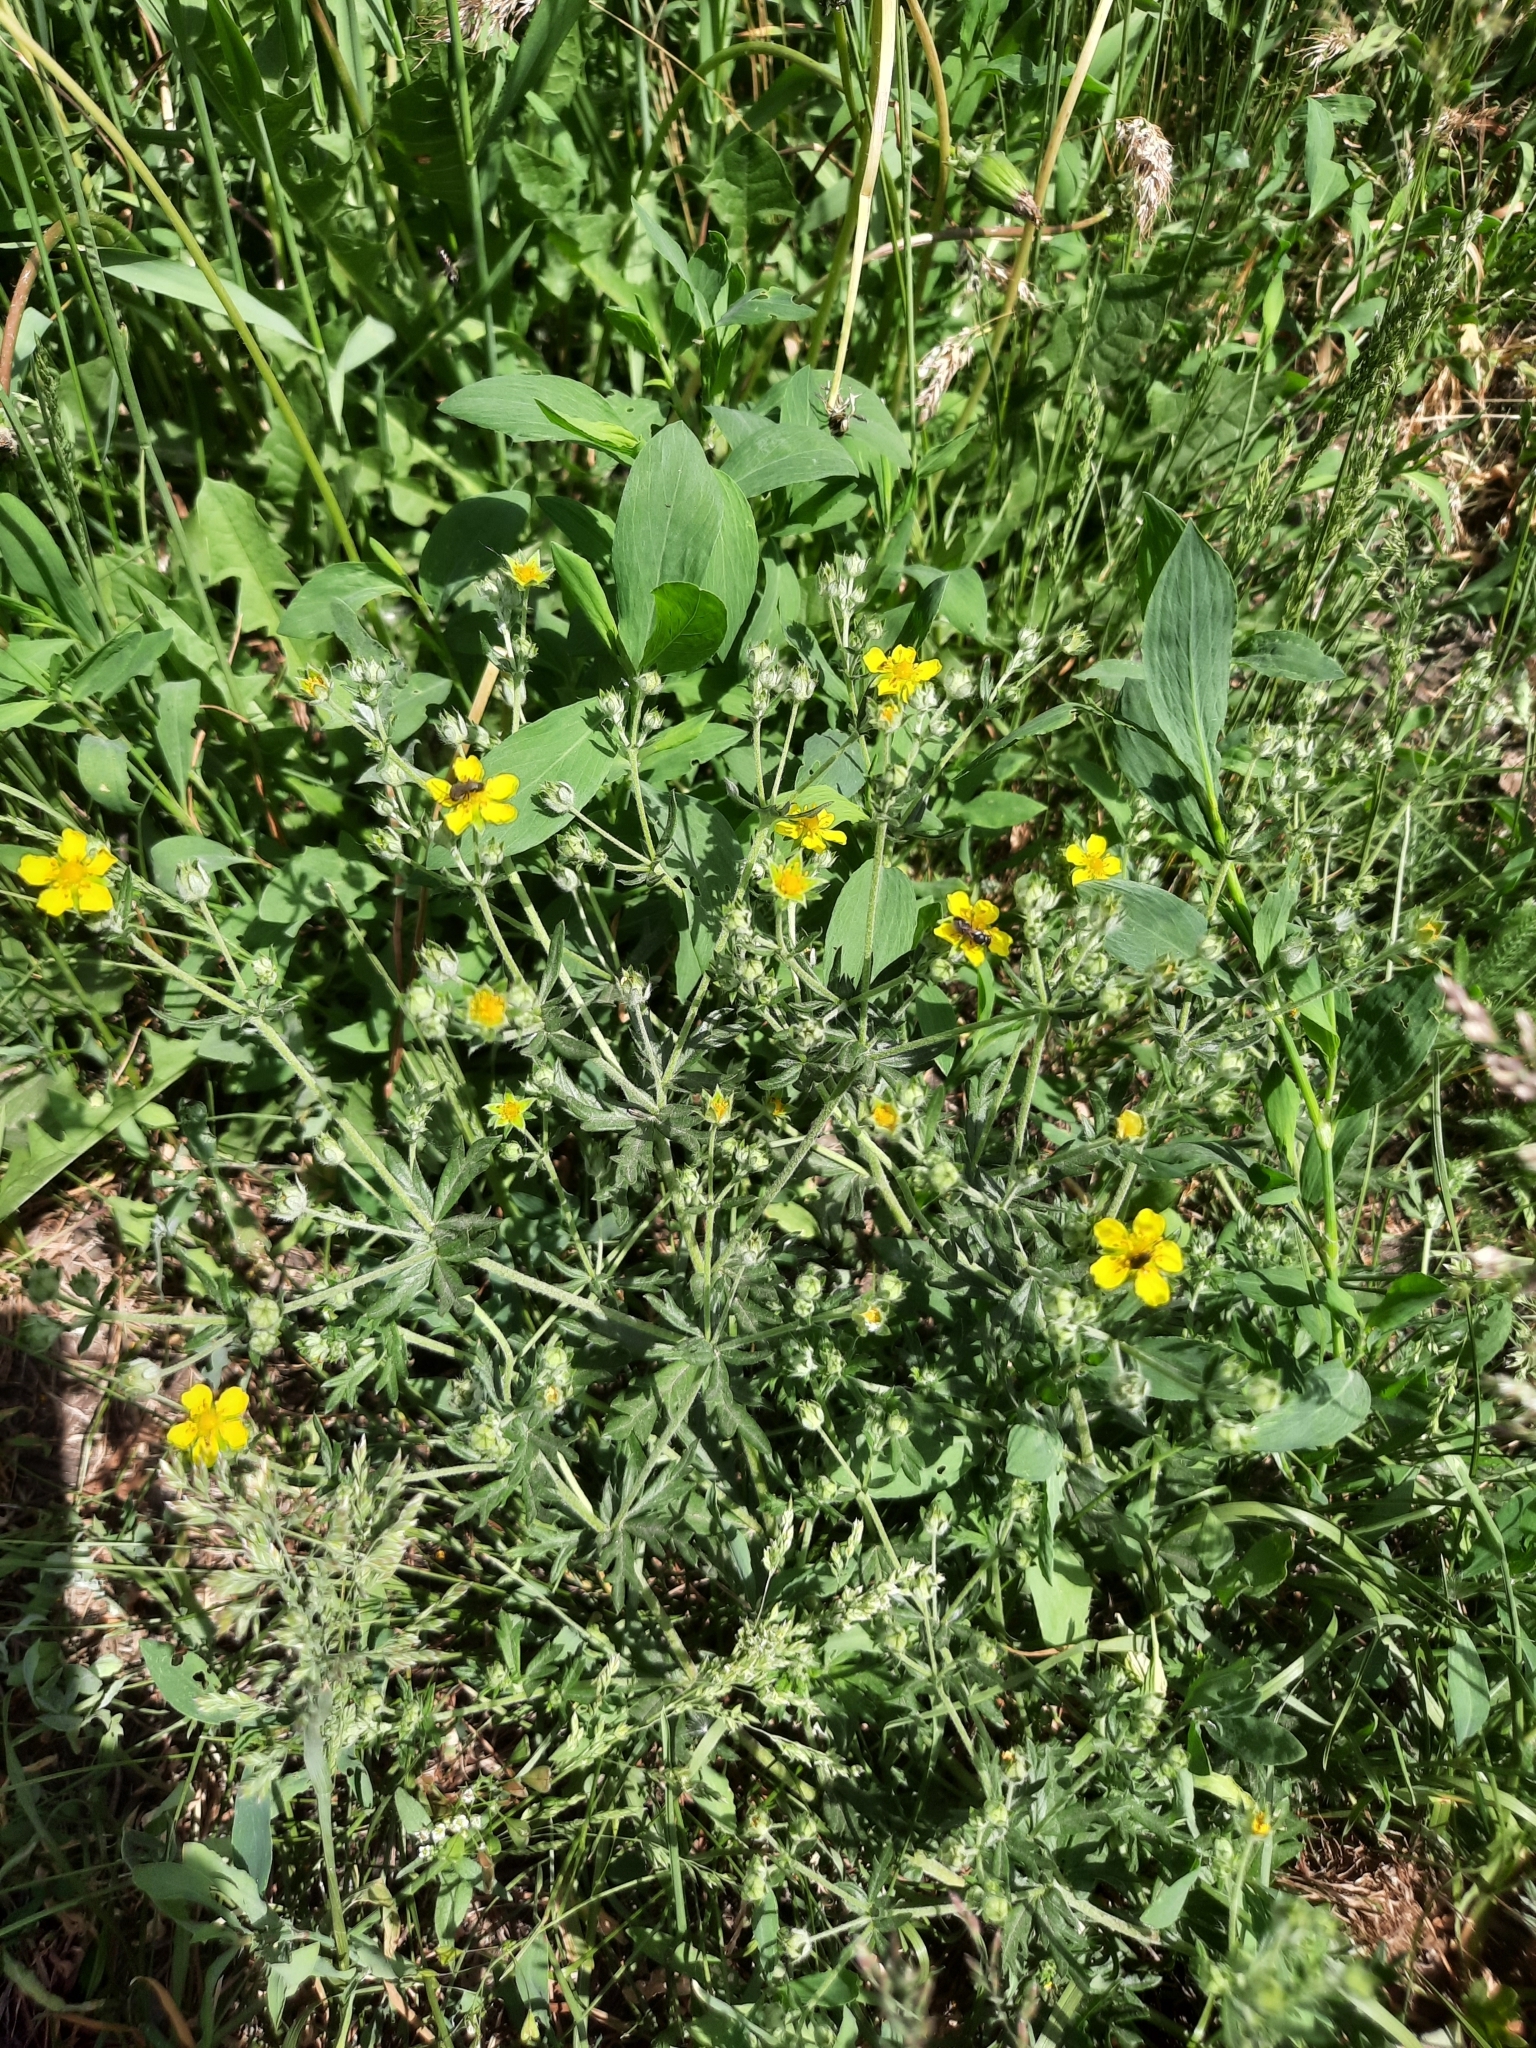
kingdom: Plantae
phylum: Tracheophyta
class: Magnoliopsida
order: Rosales
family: Rosaceae
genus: Potentilla
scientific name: Potentilla argentea
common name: Hoary cinquefoil
